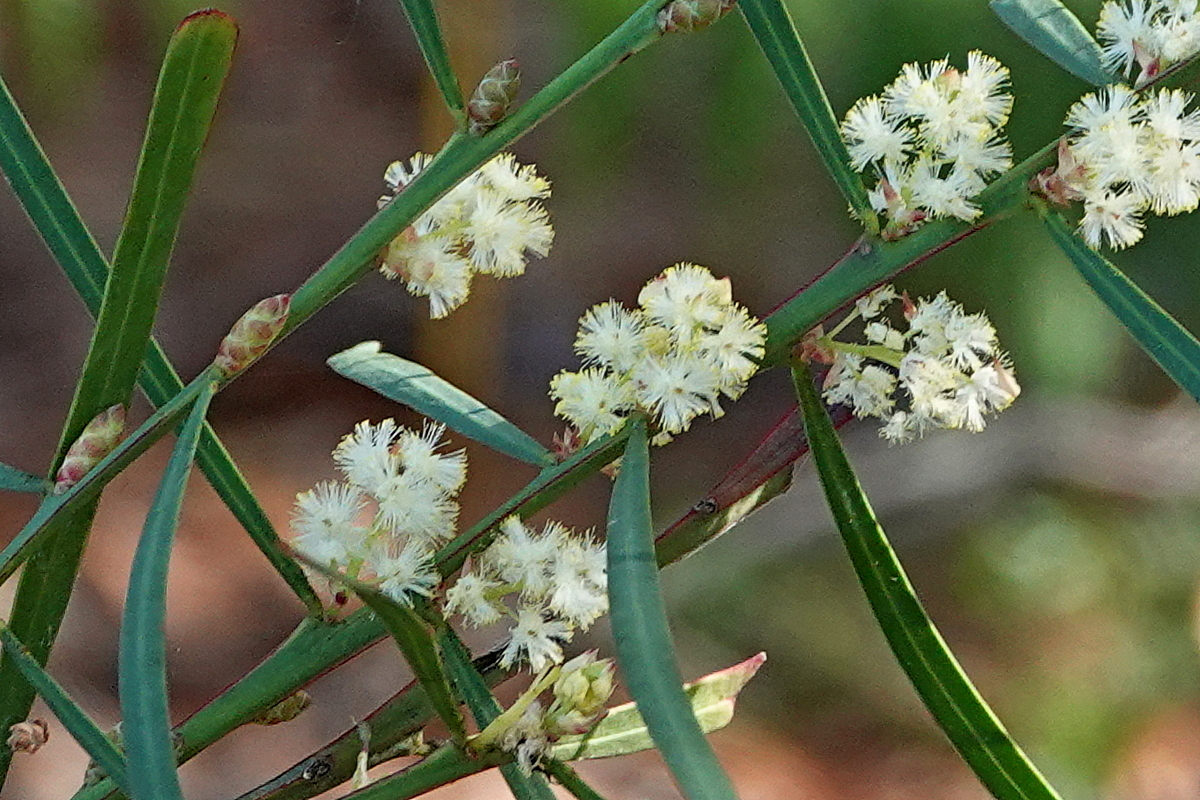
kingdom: Plantae
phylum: Tracheophyta
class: Magnoliopsida
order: Fabales
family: Fabaceae
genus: Acacia
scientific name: Acacia suaveolens
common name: Sweet acacia
